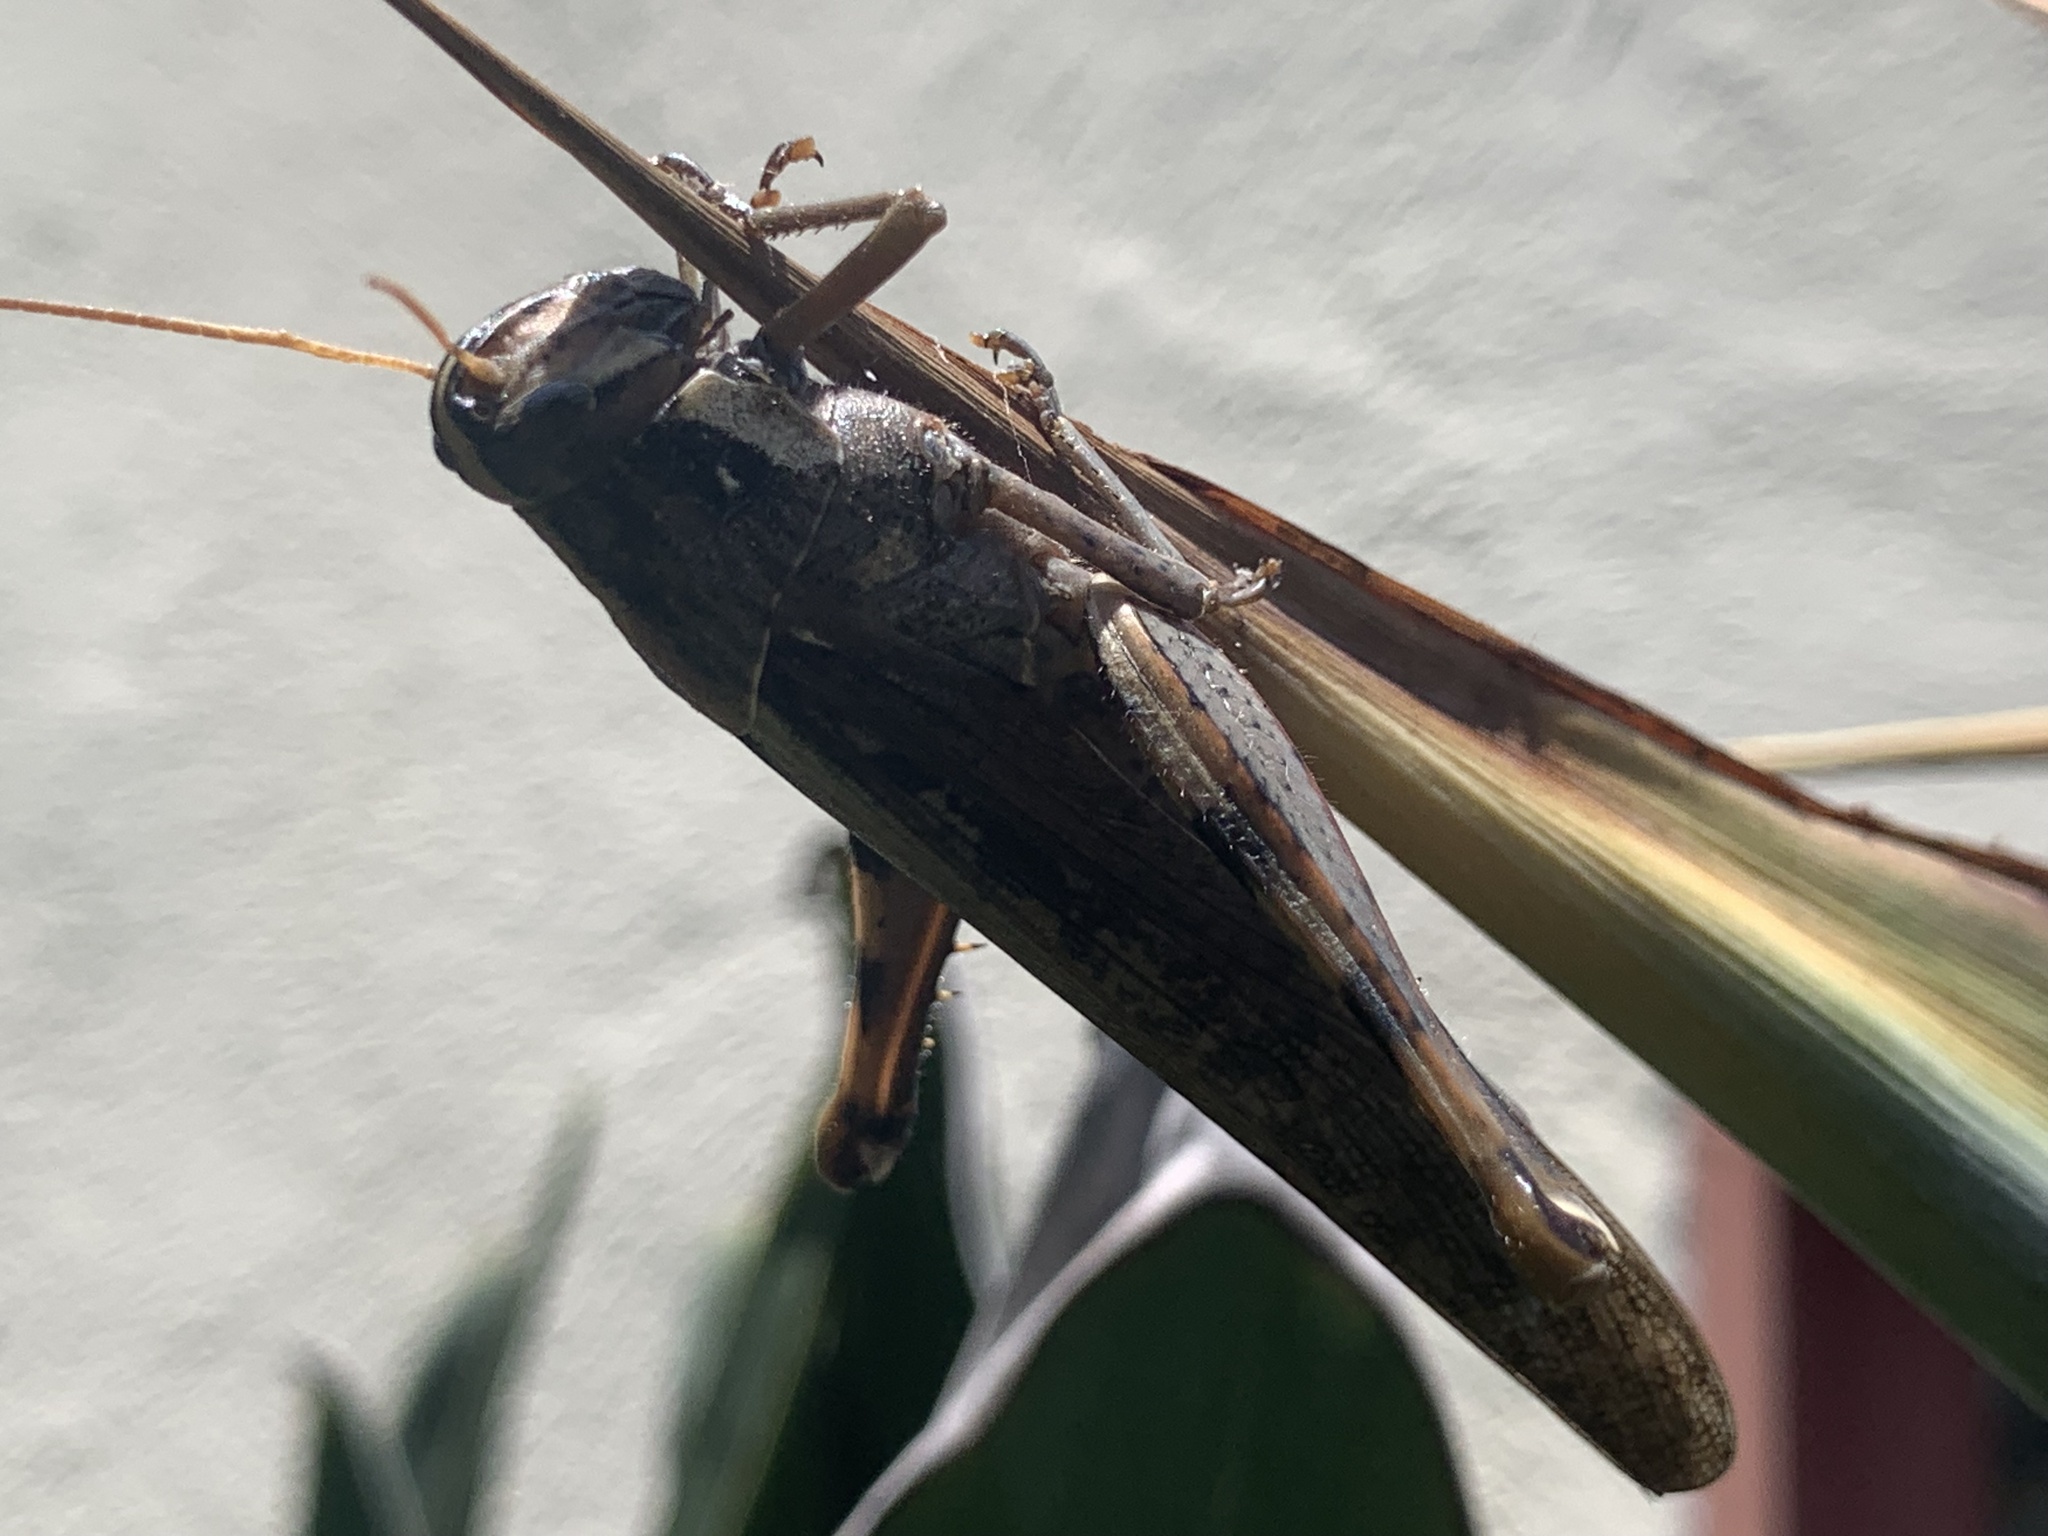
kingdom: Animalia
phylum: Arthropoda
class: Insecta
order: Orthoptera
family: Acrididae
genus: Schistocerca
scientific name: Schistocerca nitens
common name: Vagrant grasshopper
